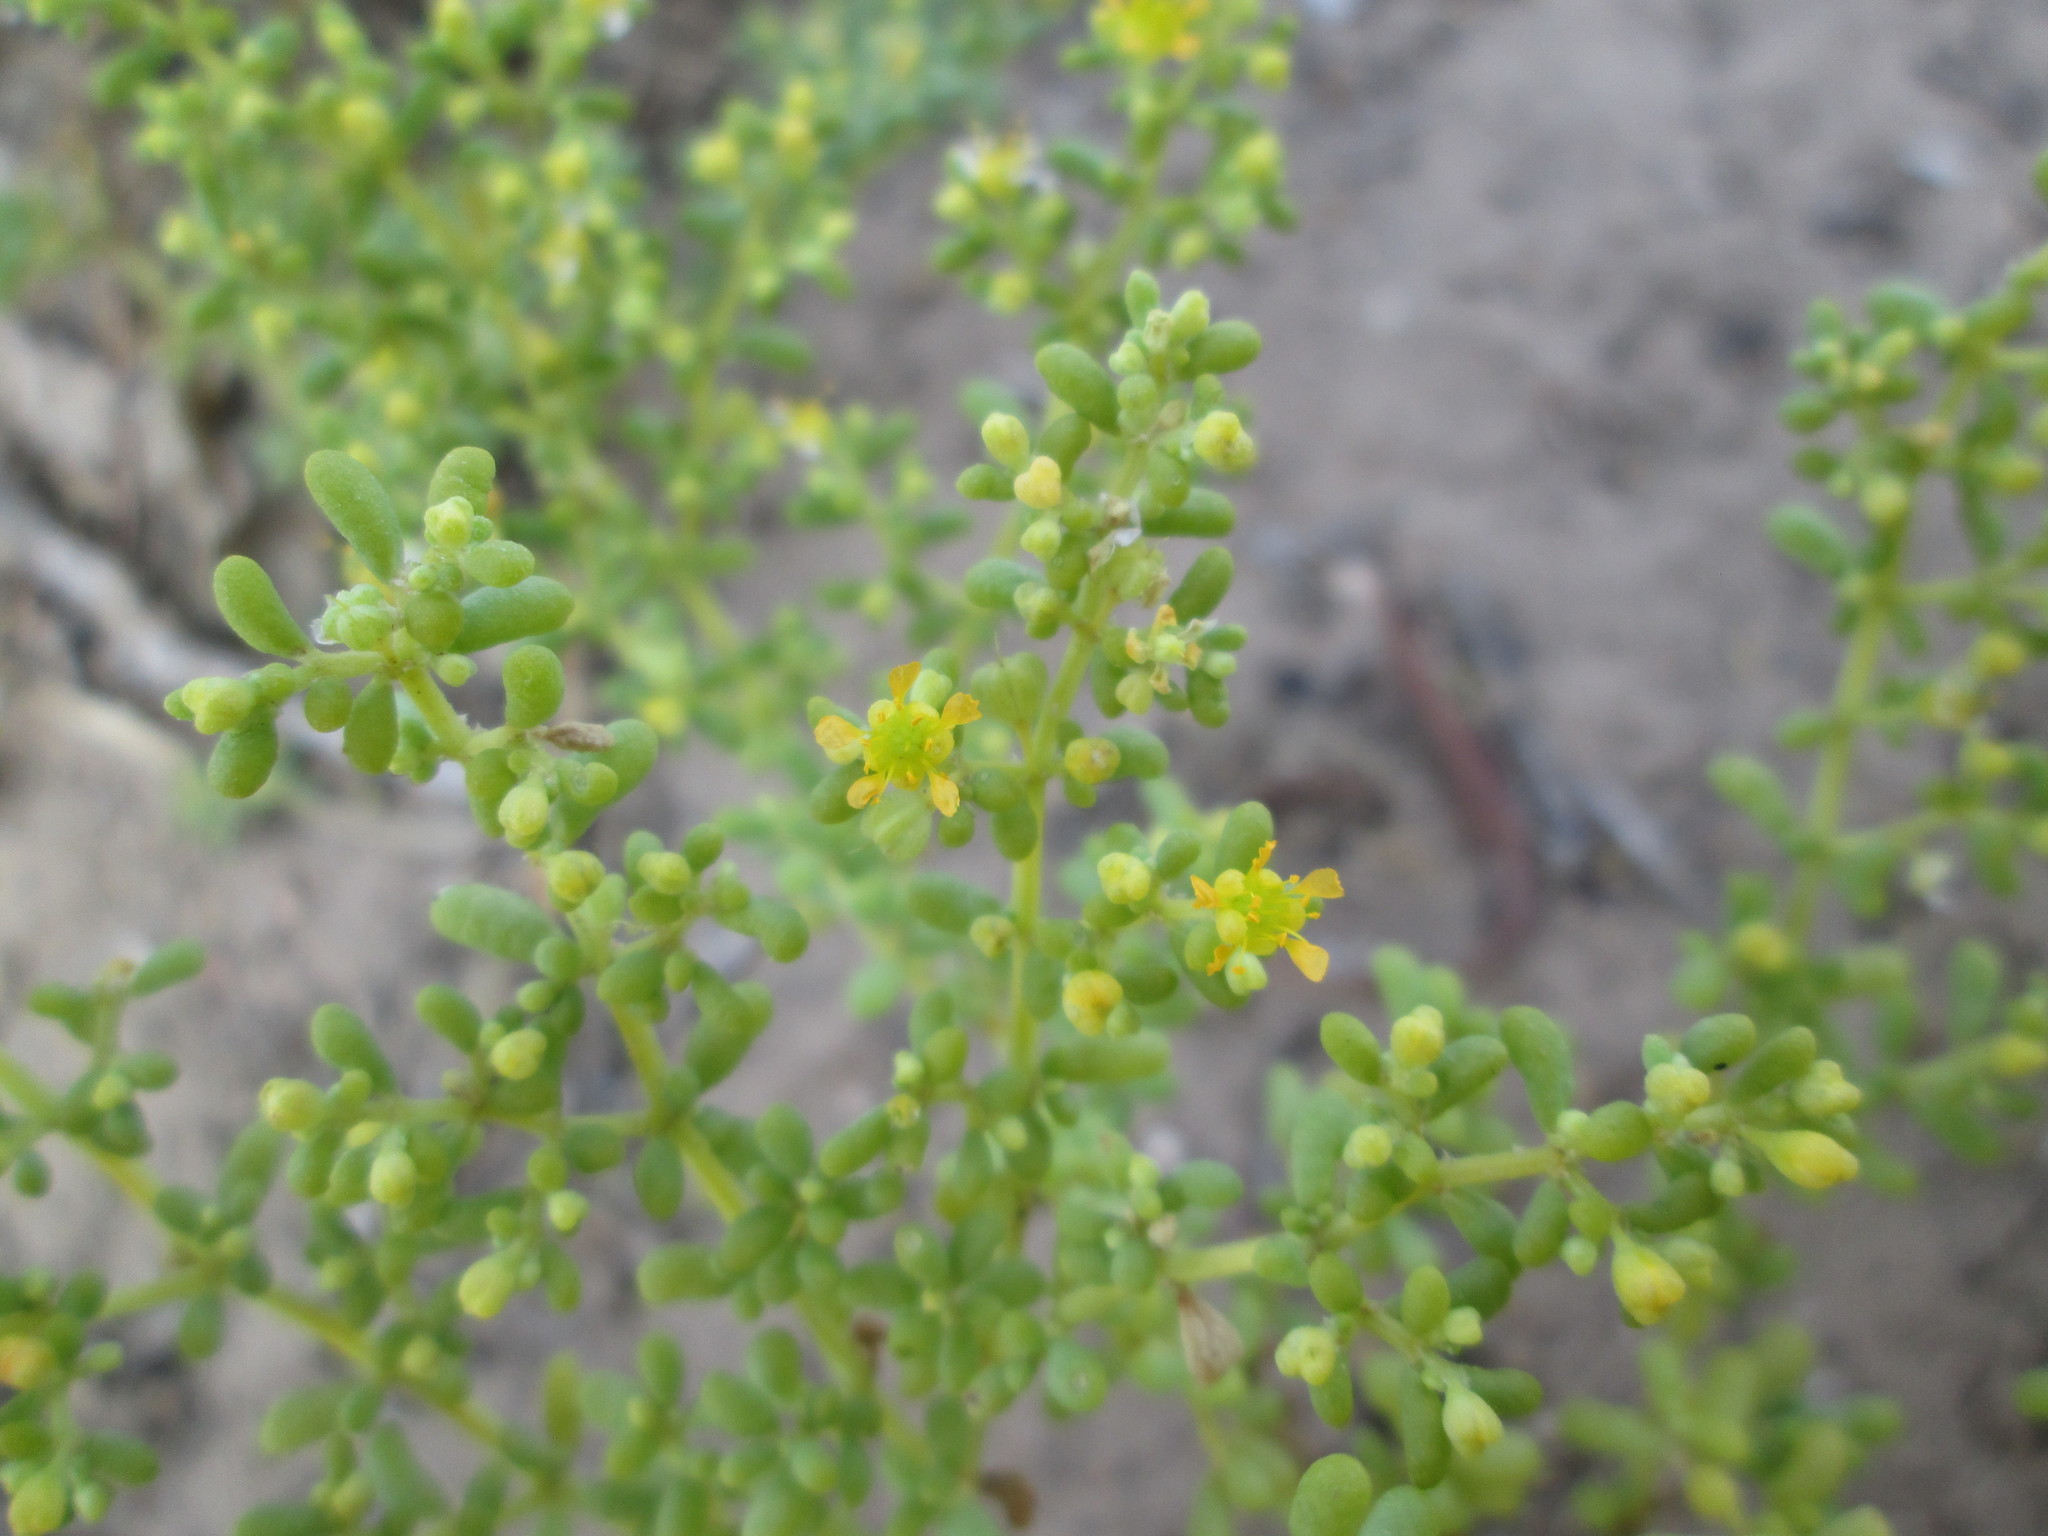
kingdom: Plantae
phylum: Tracheophyta
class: Magnoliopsida
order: Zygophyllales
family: Zygophyllaceae
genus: Tetraena
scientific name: Tetraena simplex
